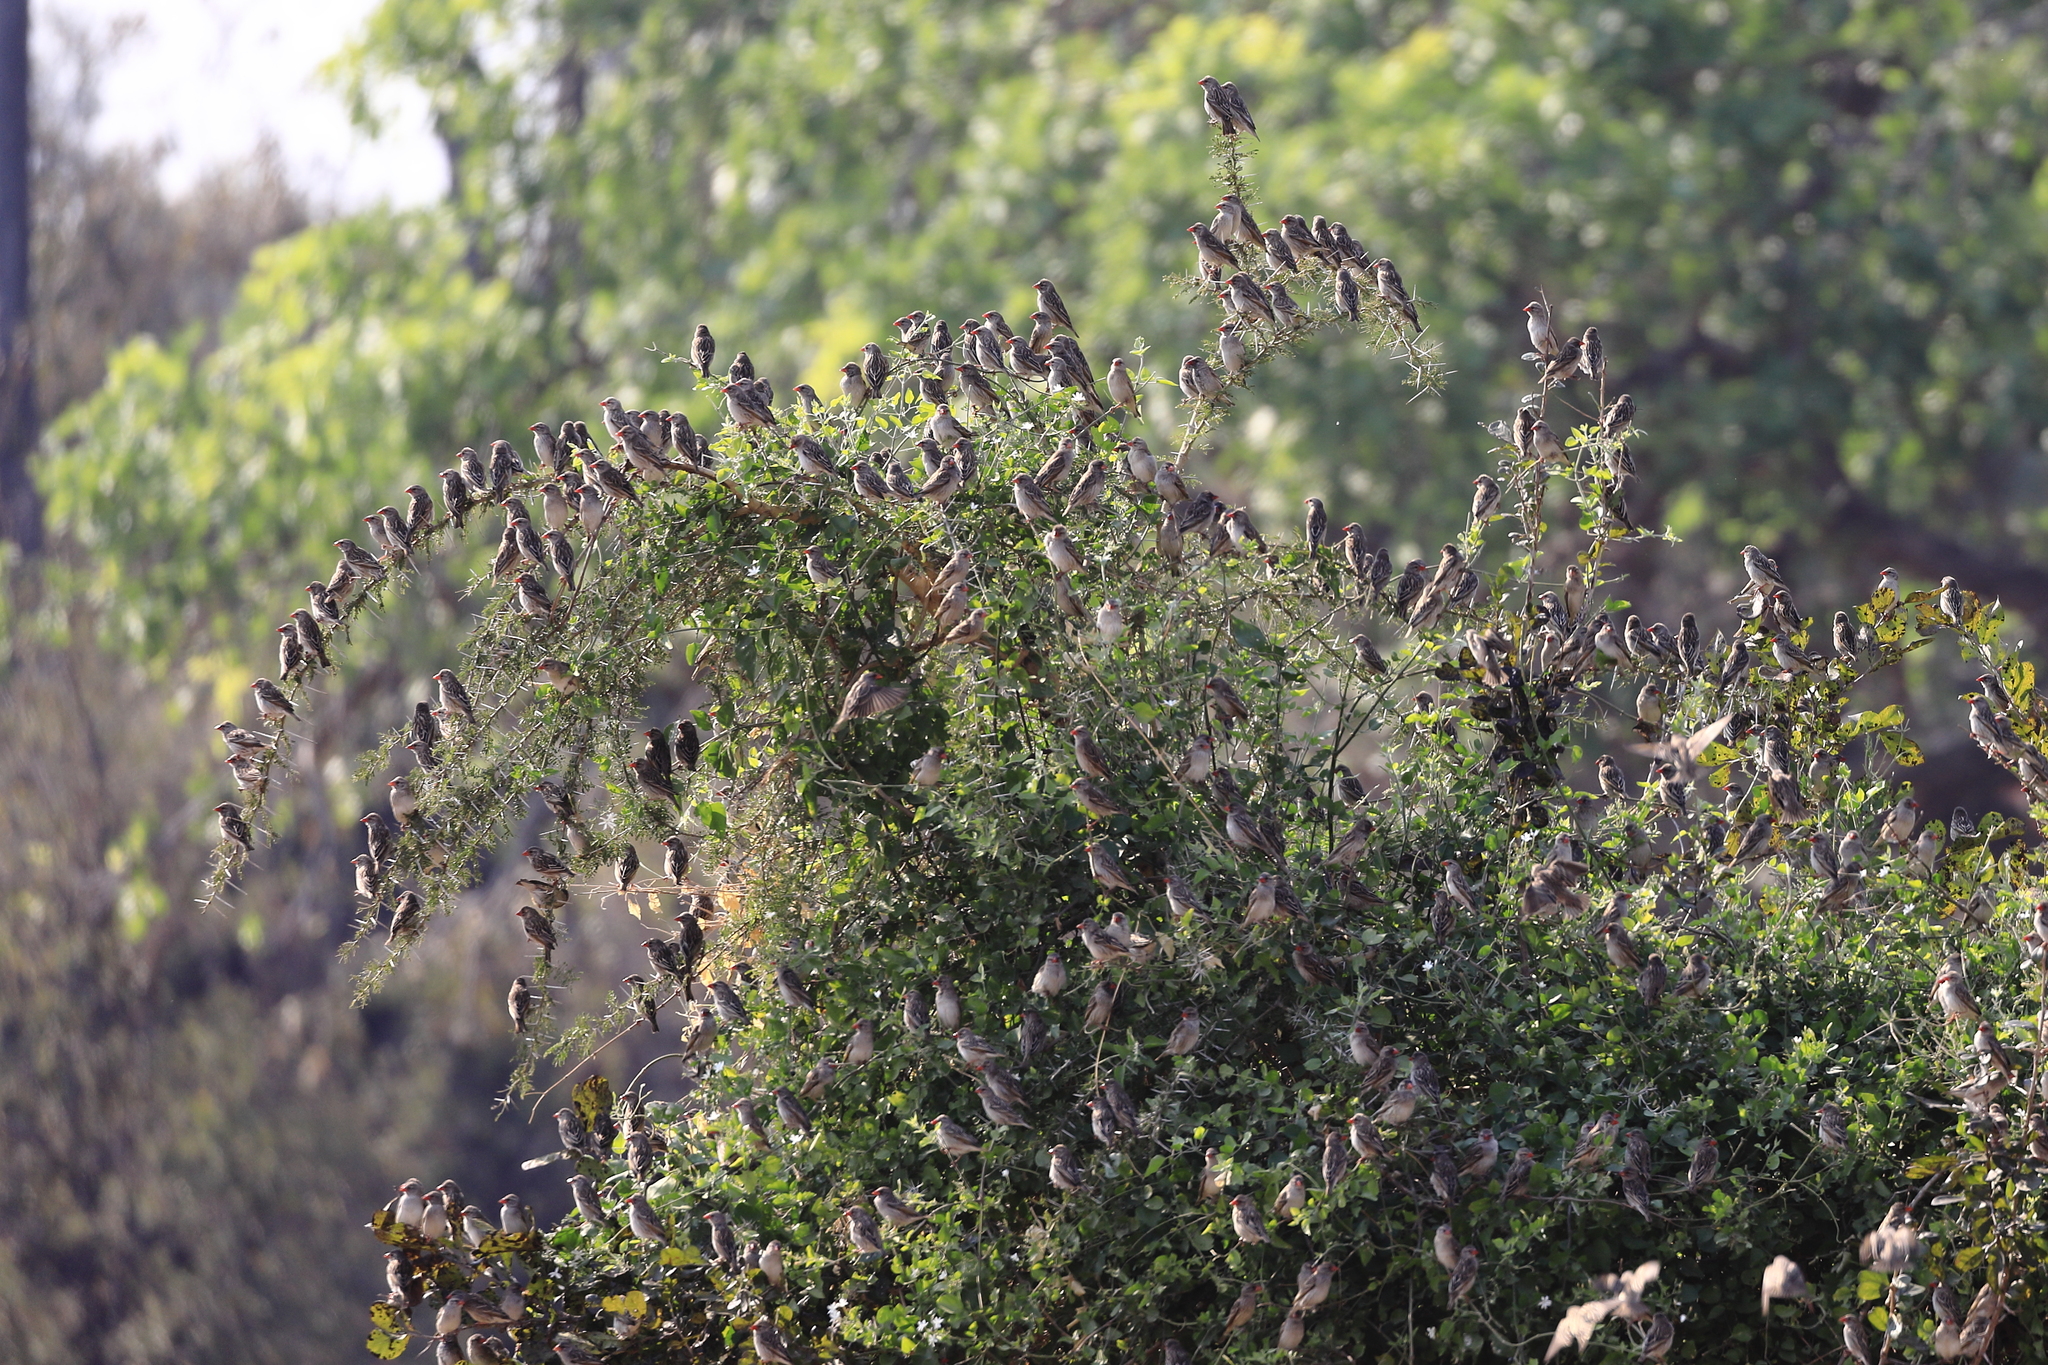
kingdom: Animalia
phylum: Chordata
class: Aves
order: Passeriformes
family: Ploceidae
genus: Quelea
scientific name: Quelea quelea
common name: Red-billed quelea
